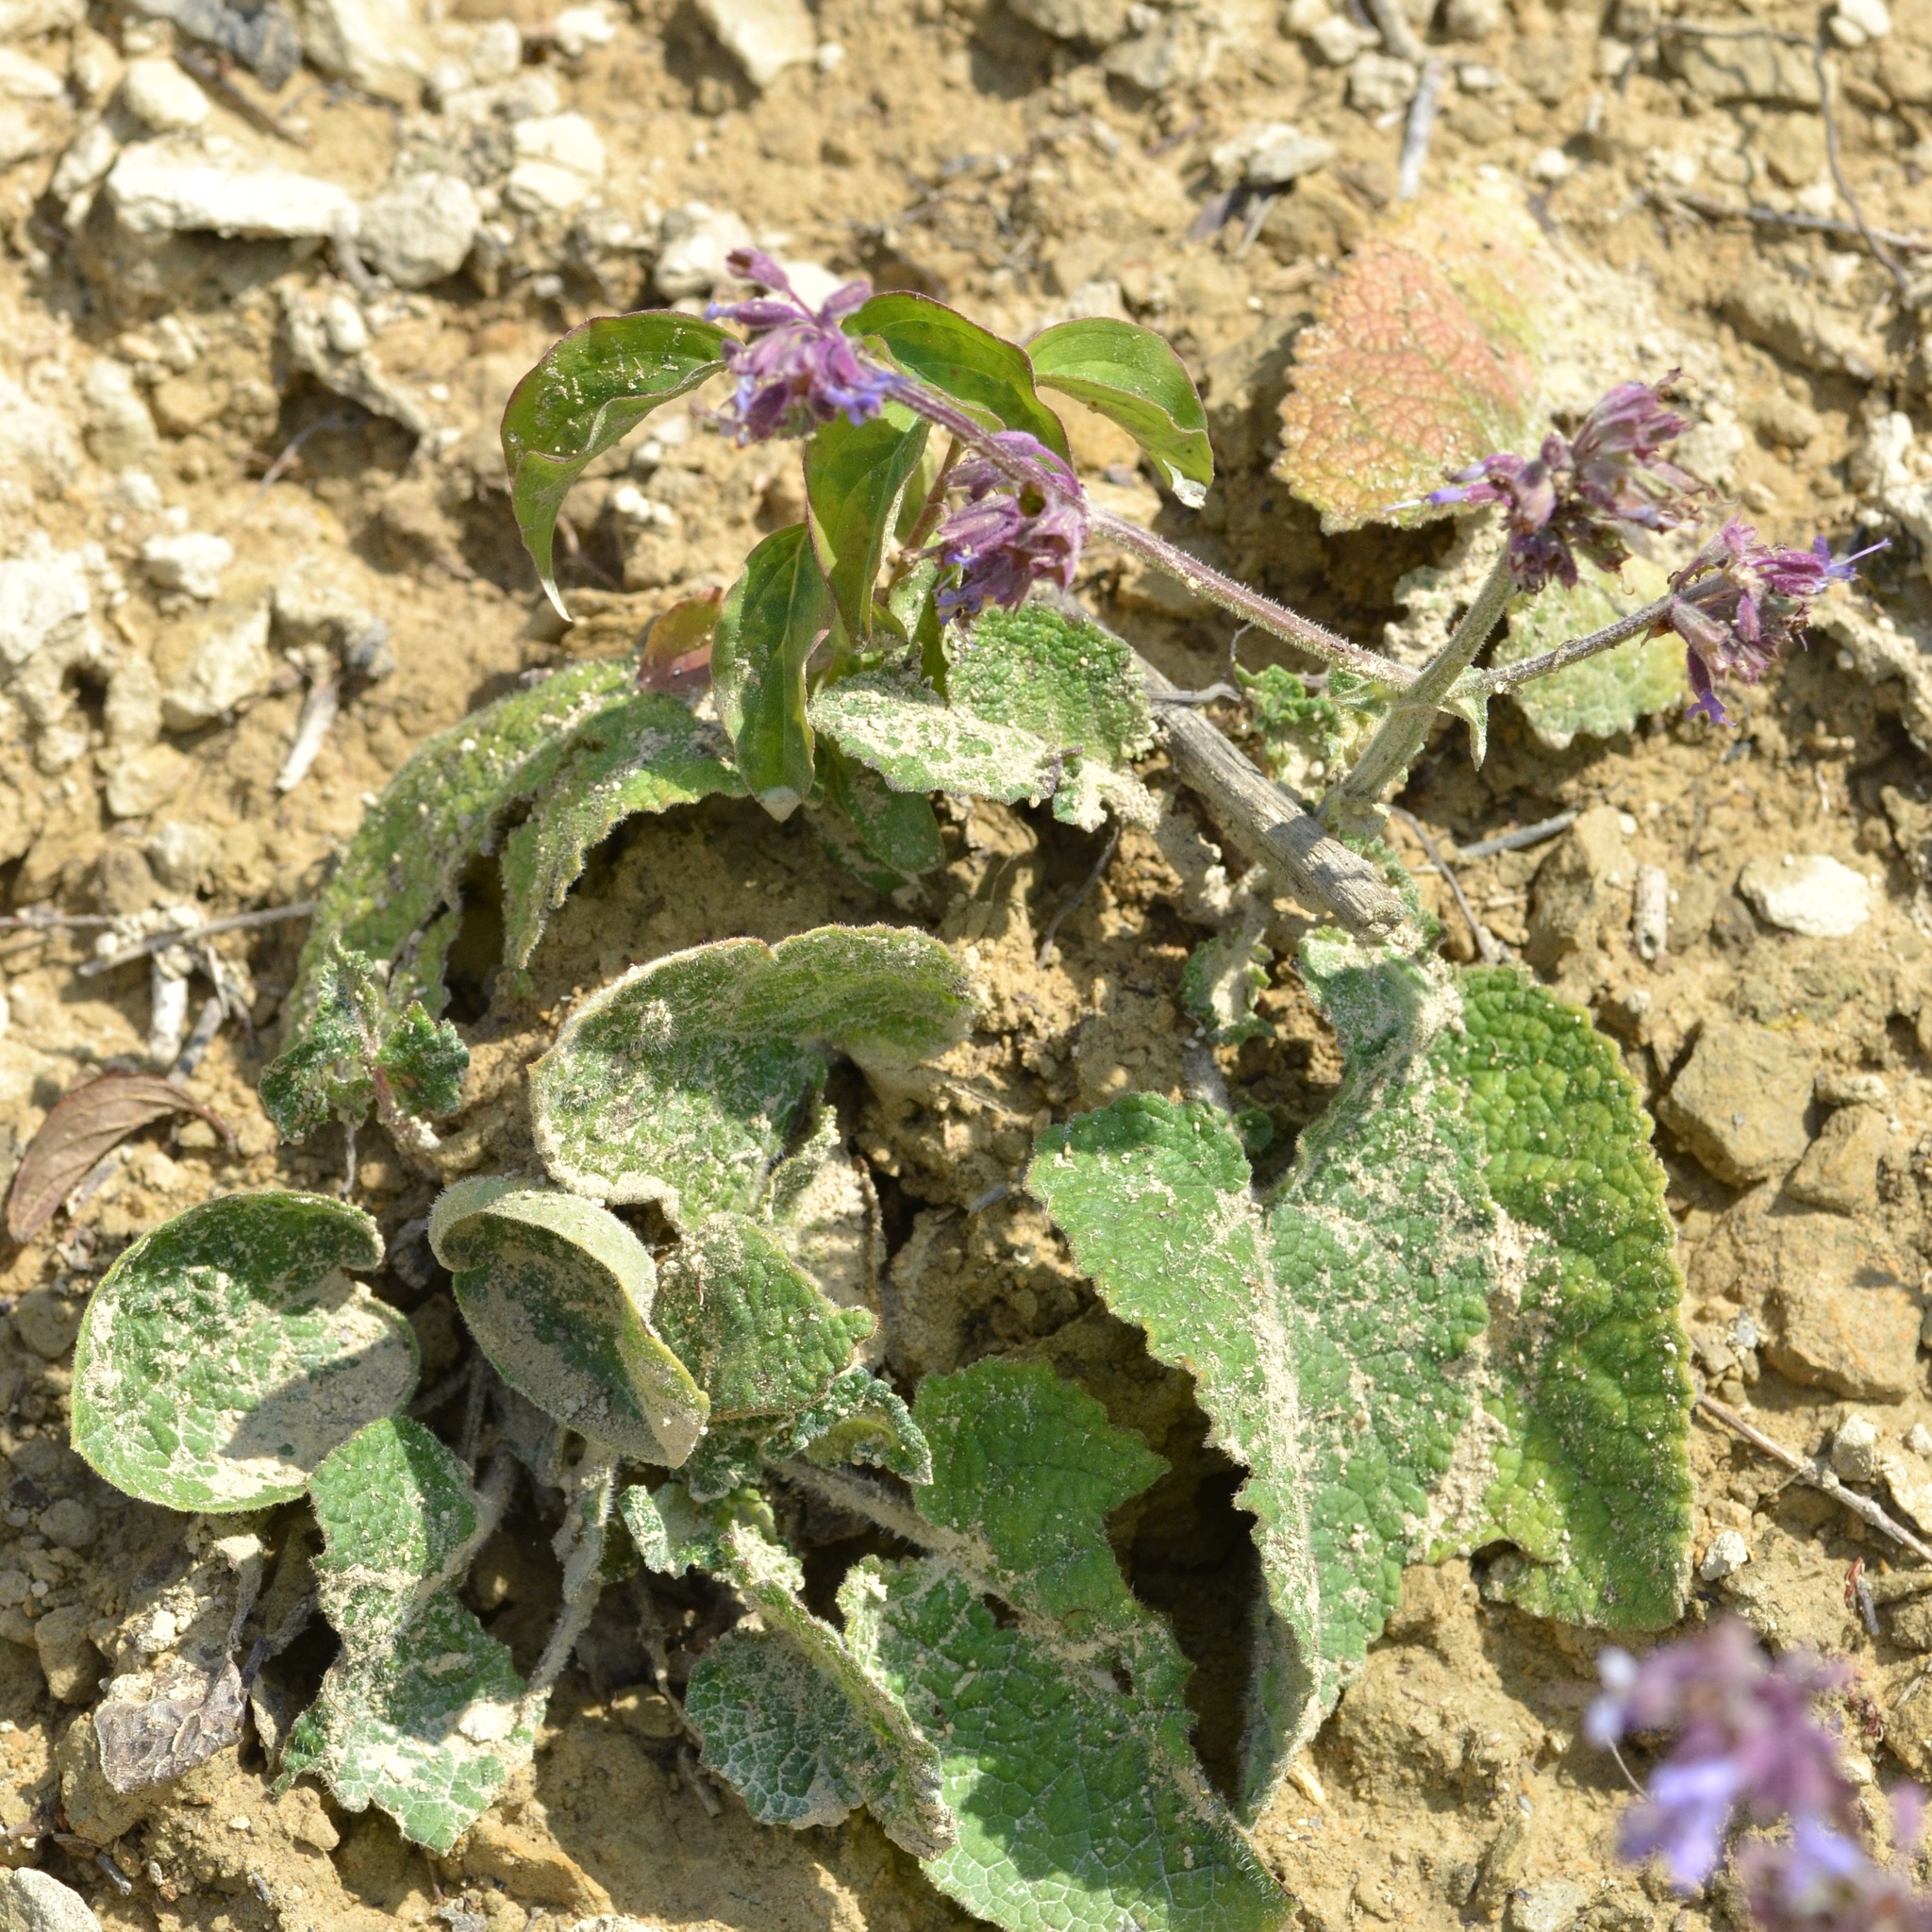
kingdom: Plantae
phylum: Tracheophyta
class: Magnoliopsida
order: Lamiales
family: Lamiaceae
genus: Salvia
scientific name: Salvia verticillata
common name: Whorled clary
